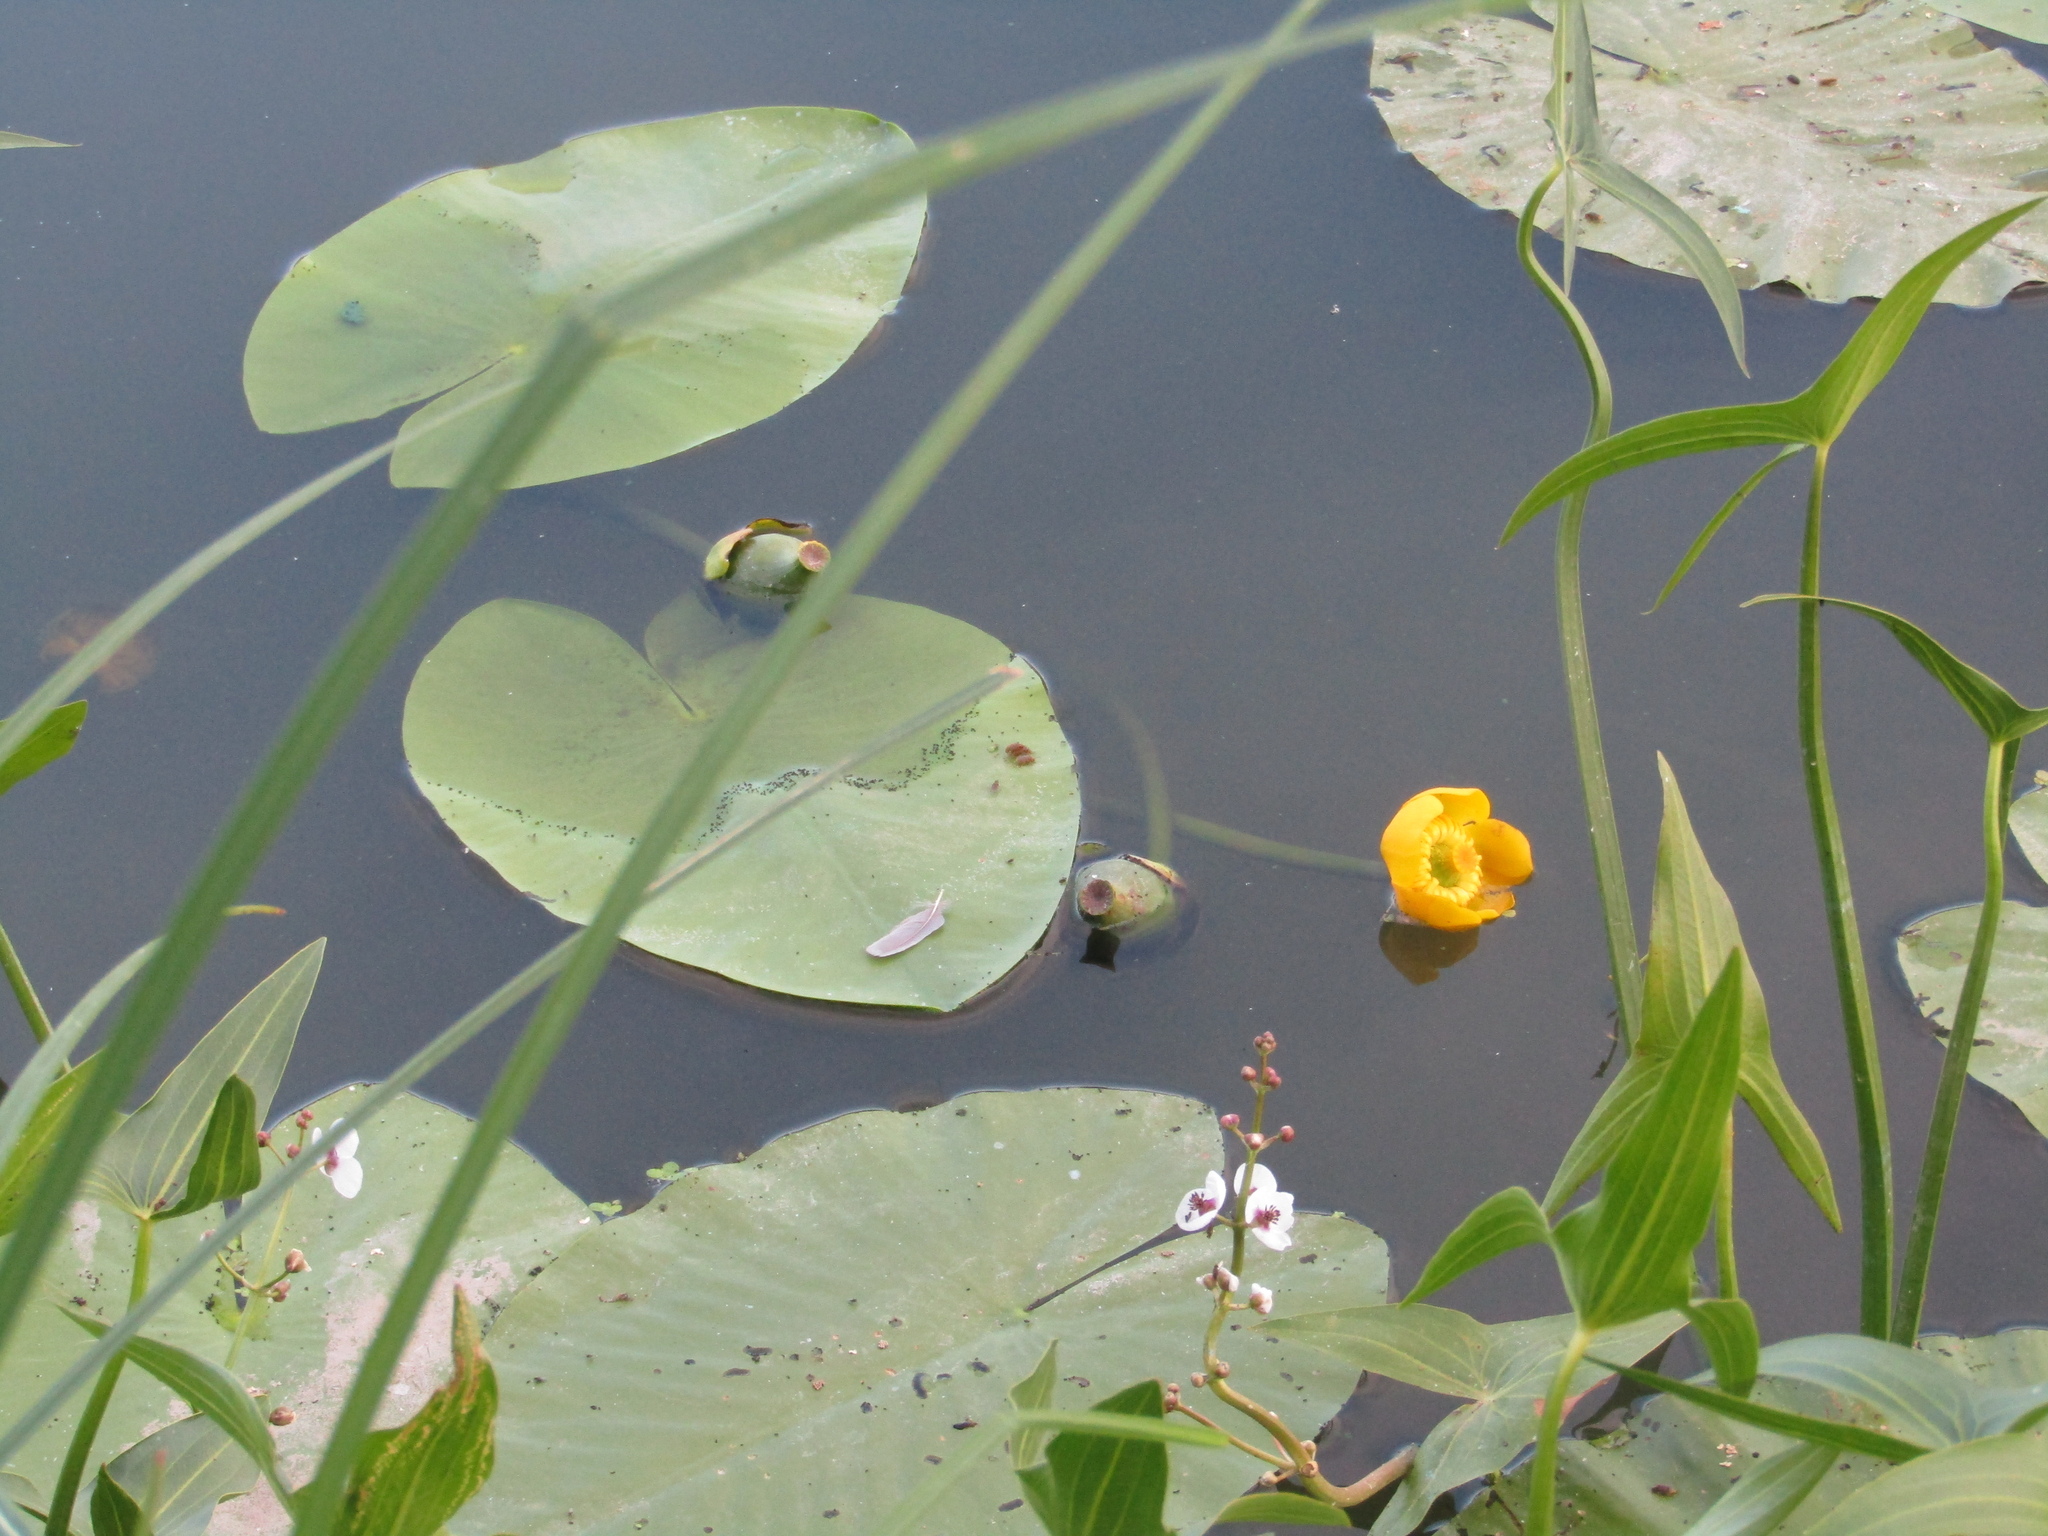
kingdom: Plantae
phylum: Tracheophyta
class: Magnoliopsida
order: Nymphaeales
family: Nymphaeaceae
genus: Nuphar
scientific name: Nuphar lutea
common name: Yellow water-lily
